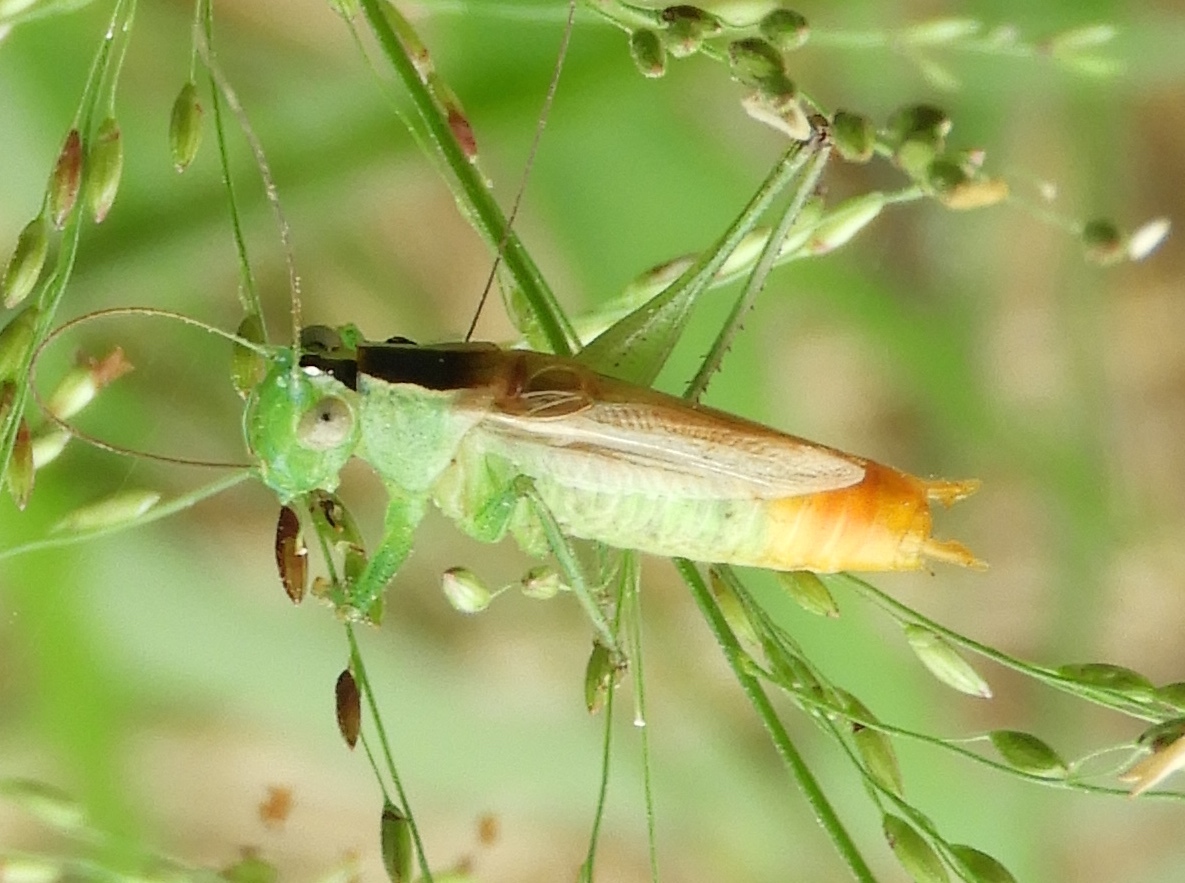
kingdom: Animalia
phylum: Arthropoda
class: Insecta
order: Orthoptera
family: Tettigoniidae
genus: Conocephalus
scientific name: Conocephalus
